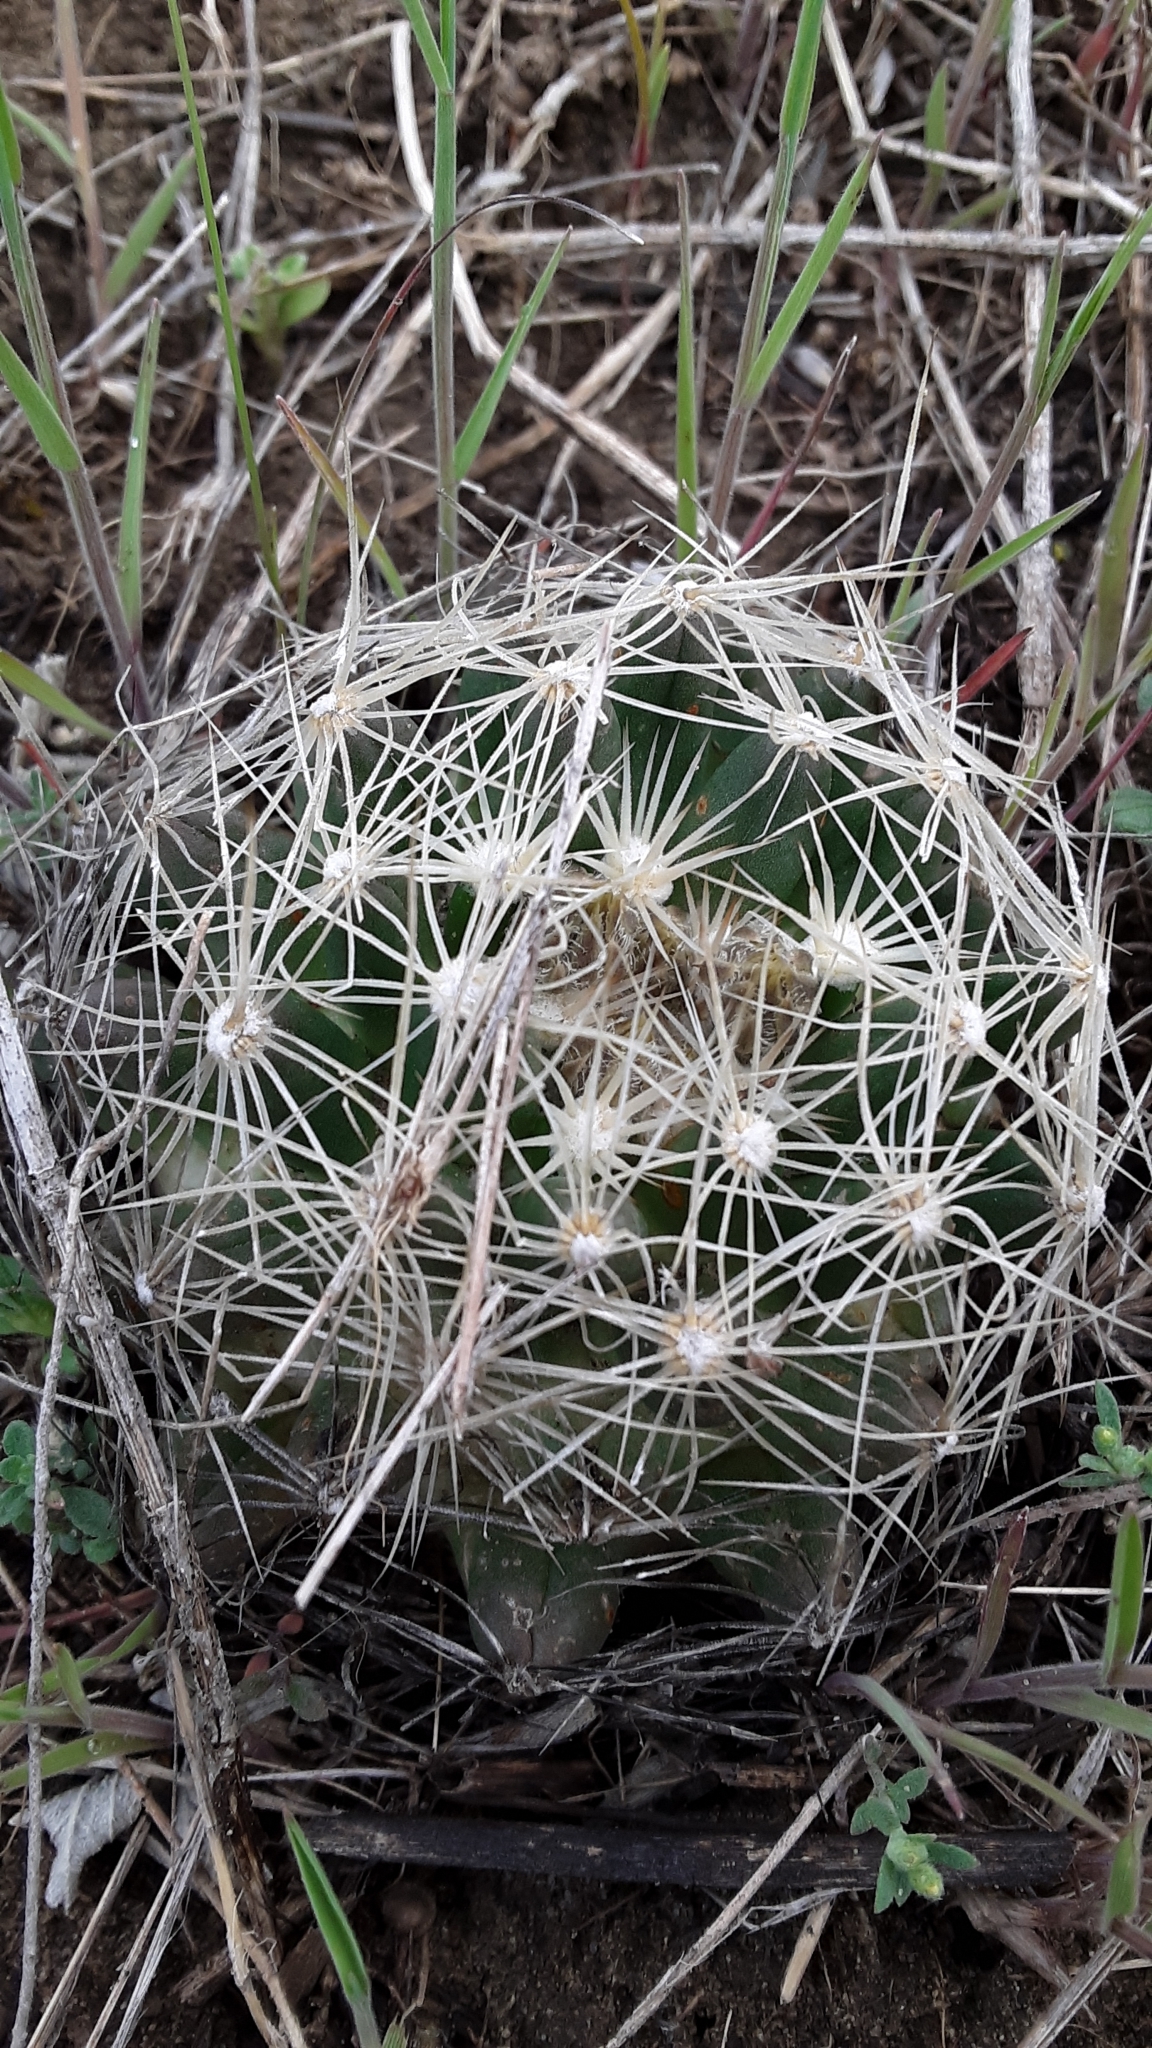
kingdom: Plantae
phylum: Tracheophyta
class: Magnoliopsida
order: Caryophyllales
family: Cactaceae
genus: Pelecyphora
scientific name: Pelecyphora missouriensis
